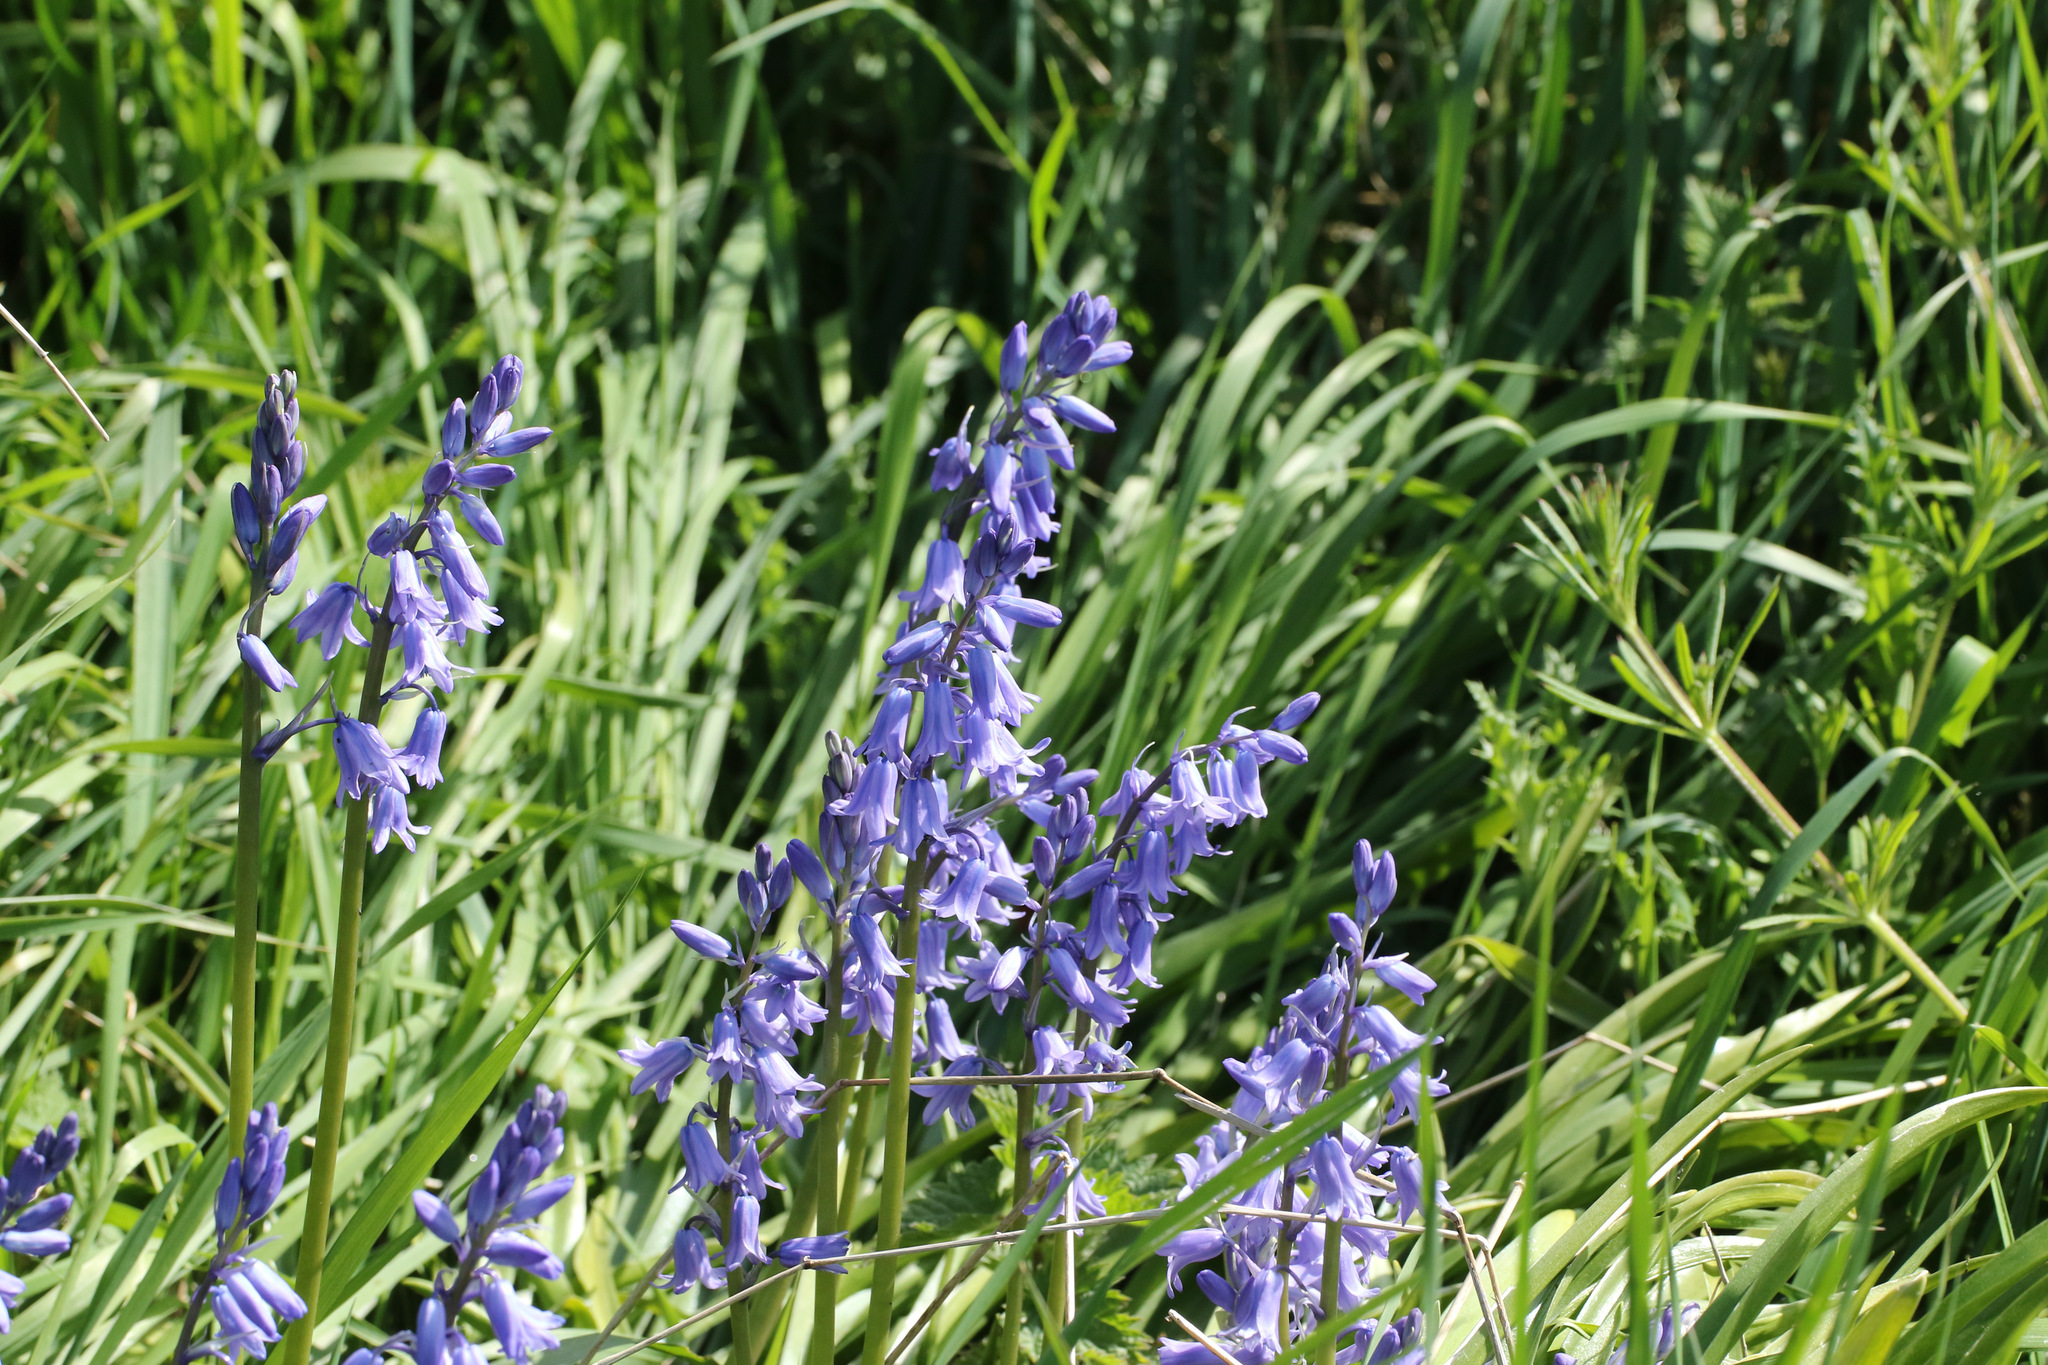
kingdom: Plantae
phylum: Tracheophyta
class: Liliopsida
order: Asparagales
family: Asparagaceae
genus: Hyacinthoides
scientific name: Hyacinthoides hispanica
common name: Spanish bluebell
